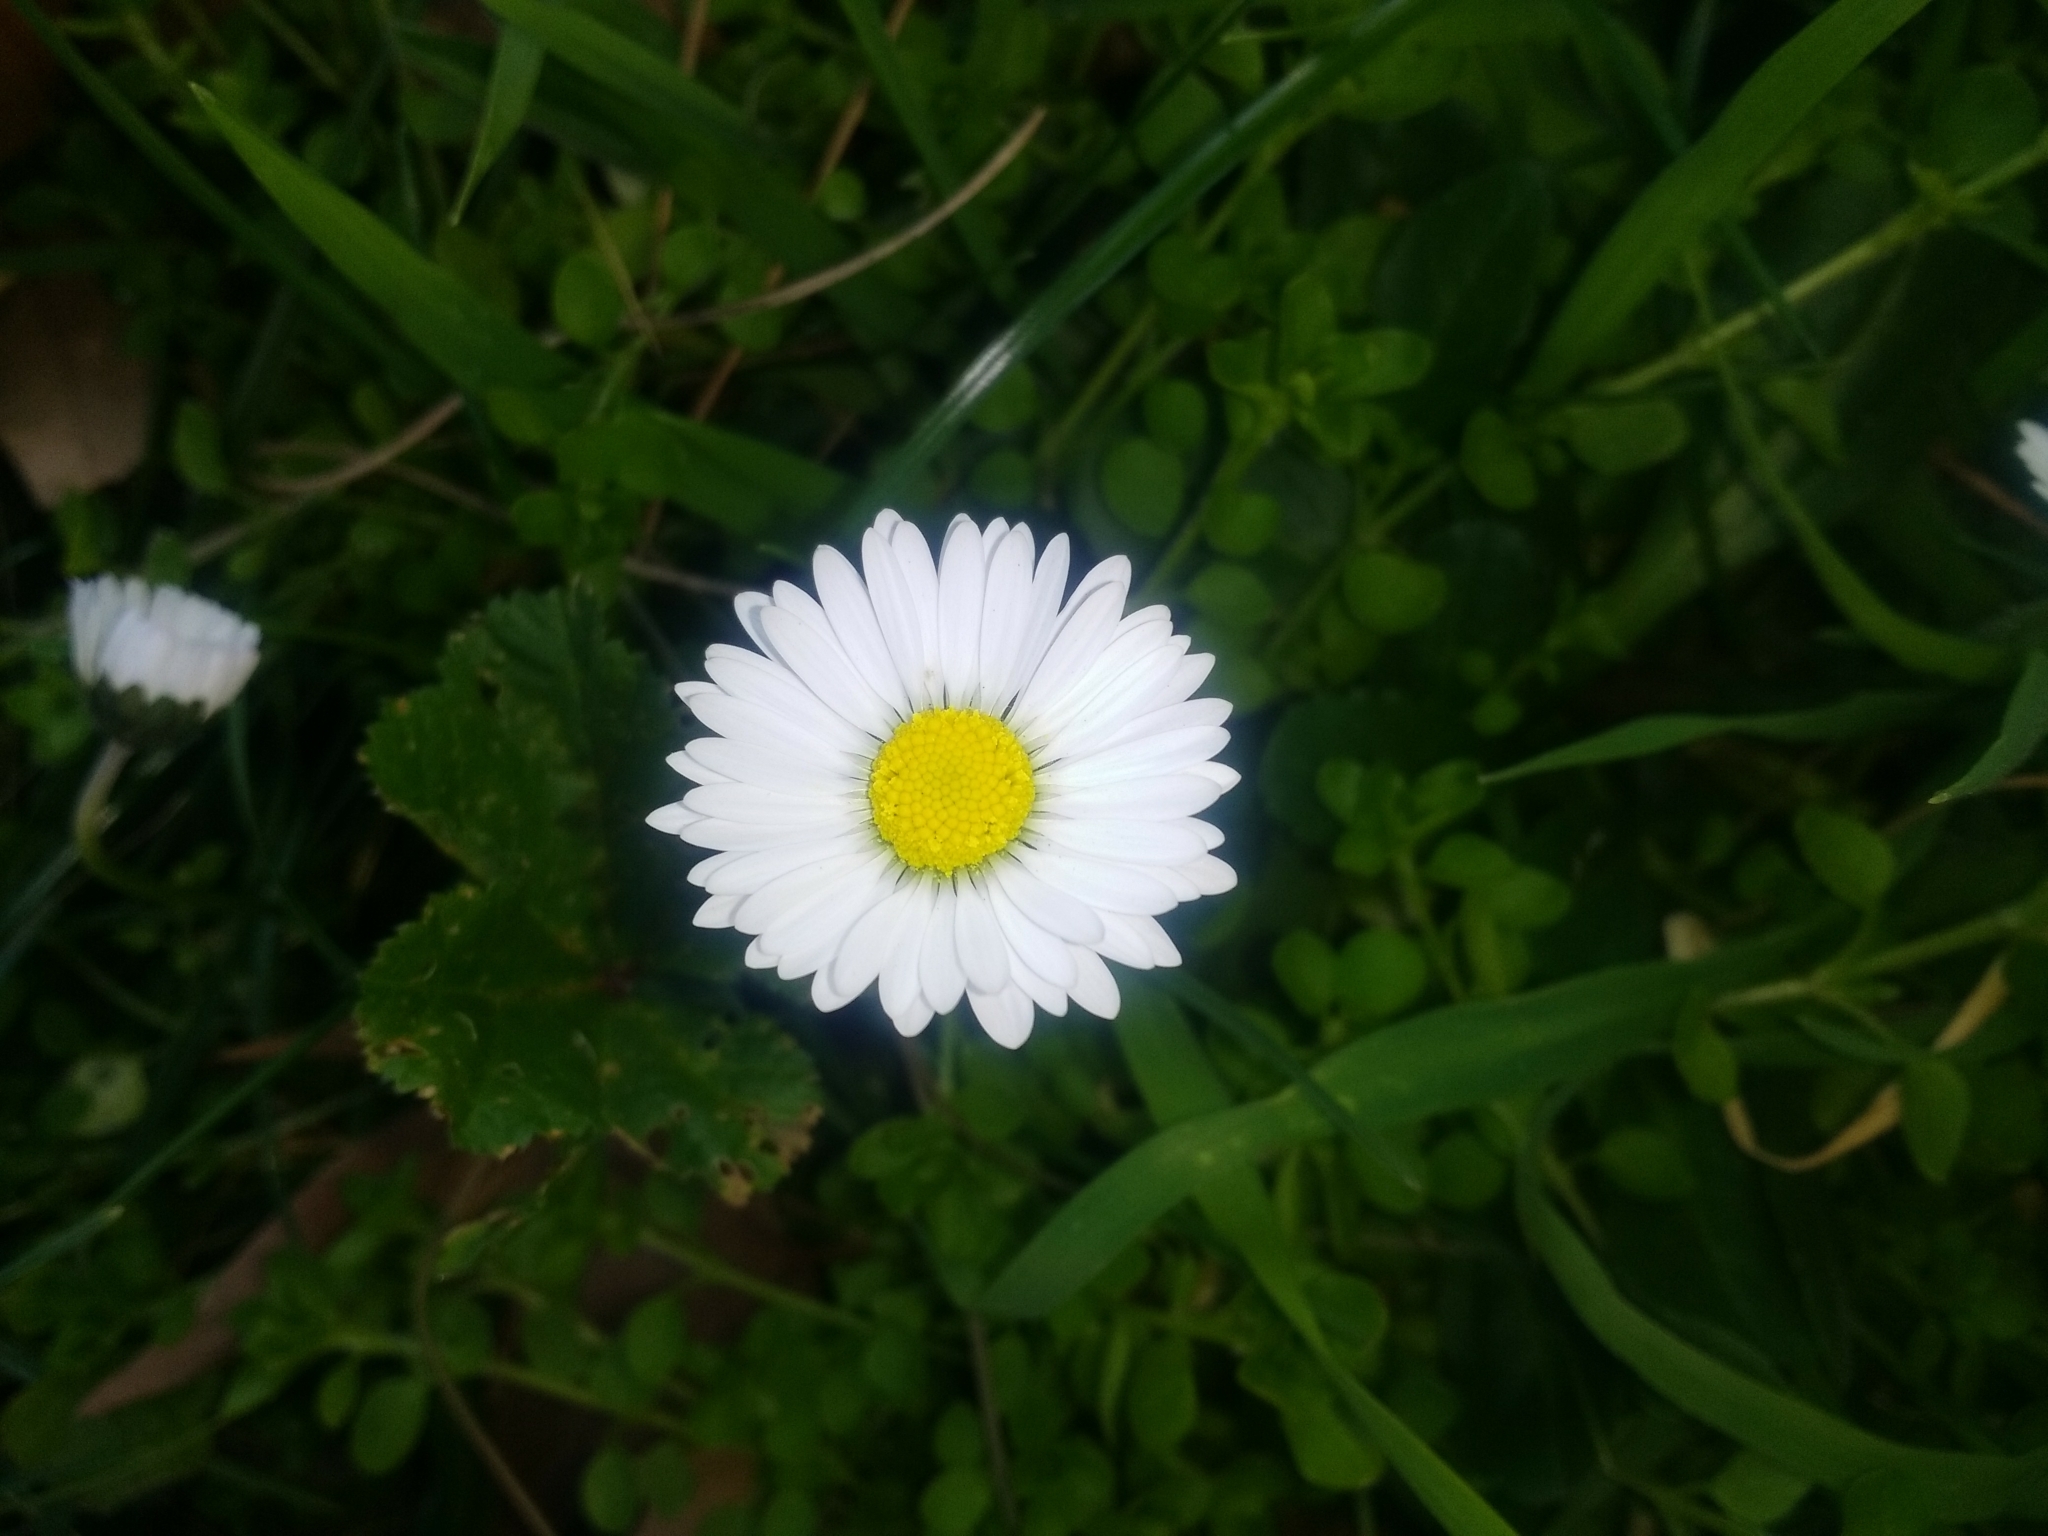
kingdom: Plantae
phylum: Tracheophyta
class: Magnoliopsida
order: Asterales
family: Asteraceae
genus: Bellis
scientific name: Bellis perennis
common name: Lawndaisy
